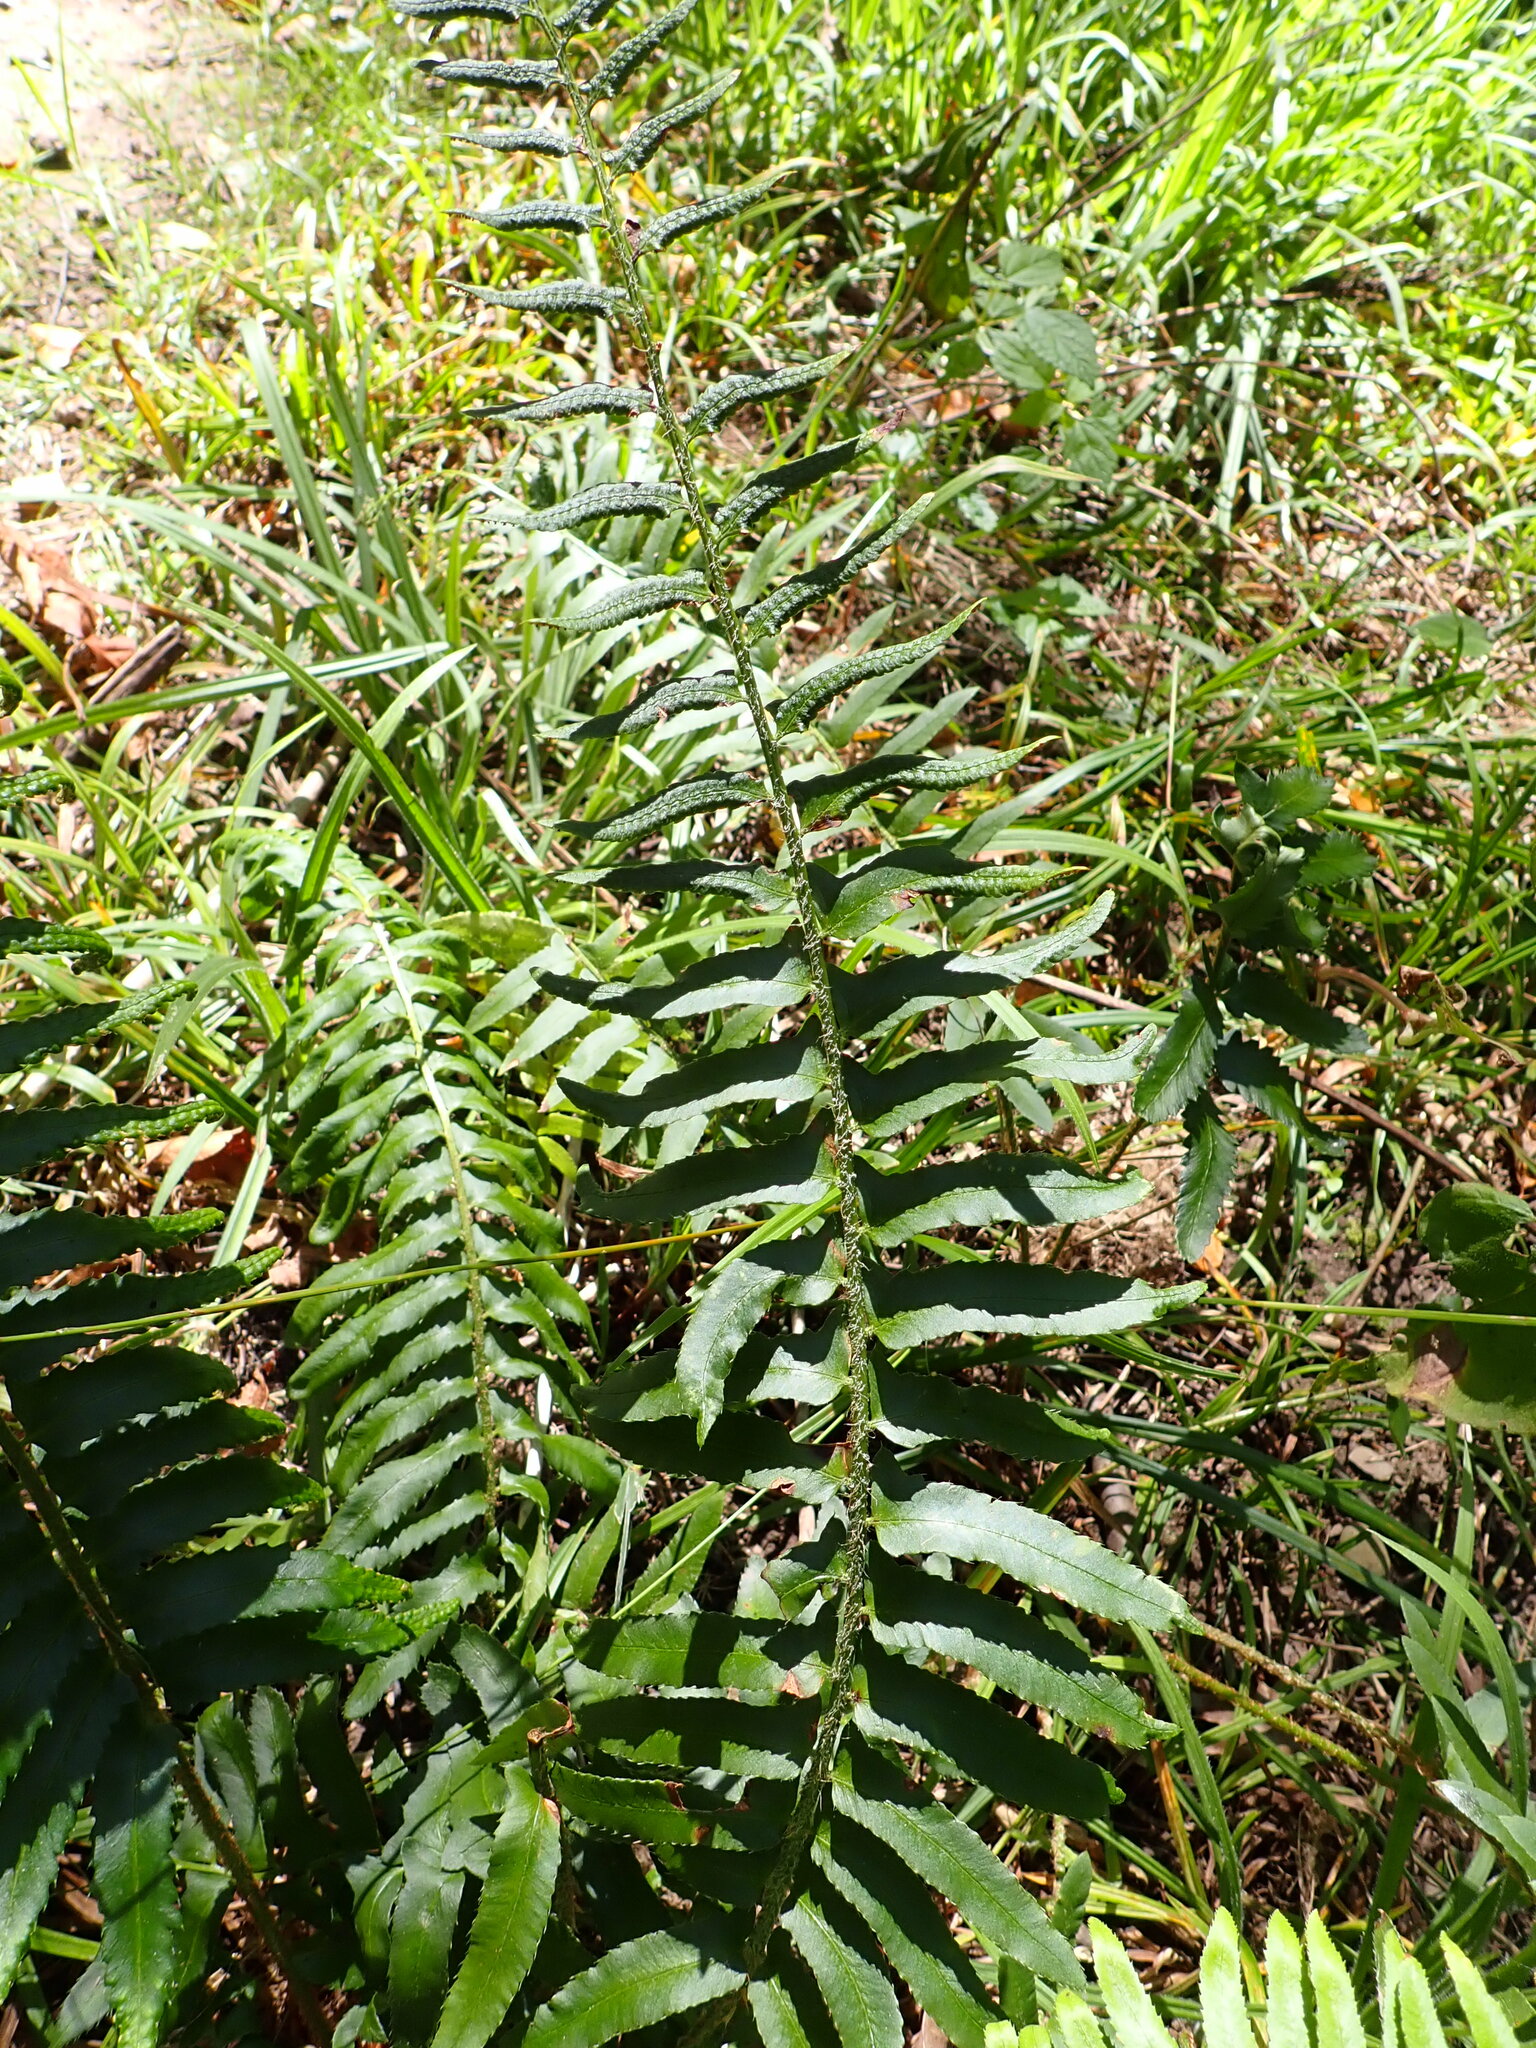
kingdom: Plantae
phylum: Tracheophyta
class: Polypodiopsida
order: Polypodiales
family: Dryopteridaceae
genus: Polystichum
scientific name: Polystichum acrostichoides
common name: Christmas fern
